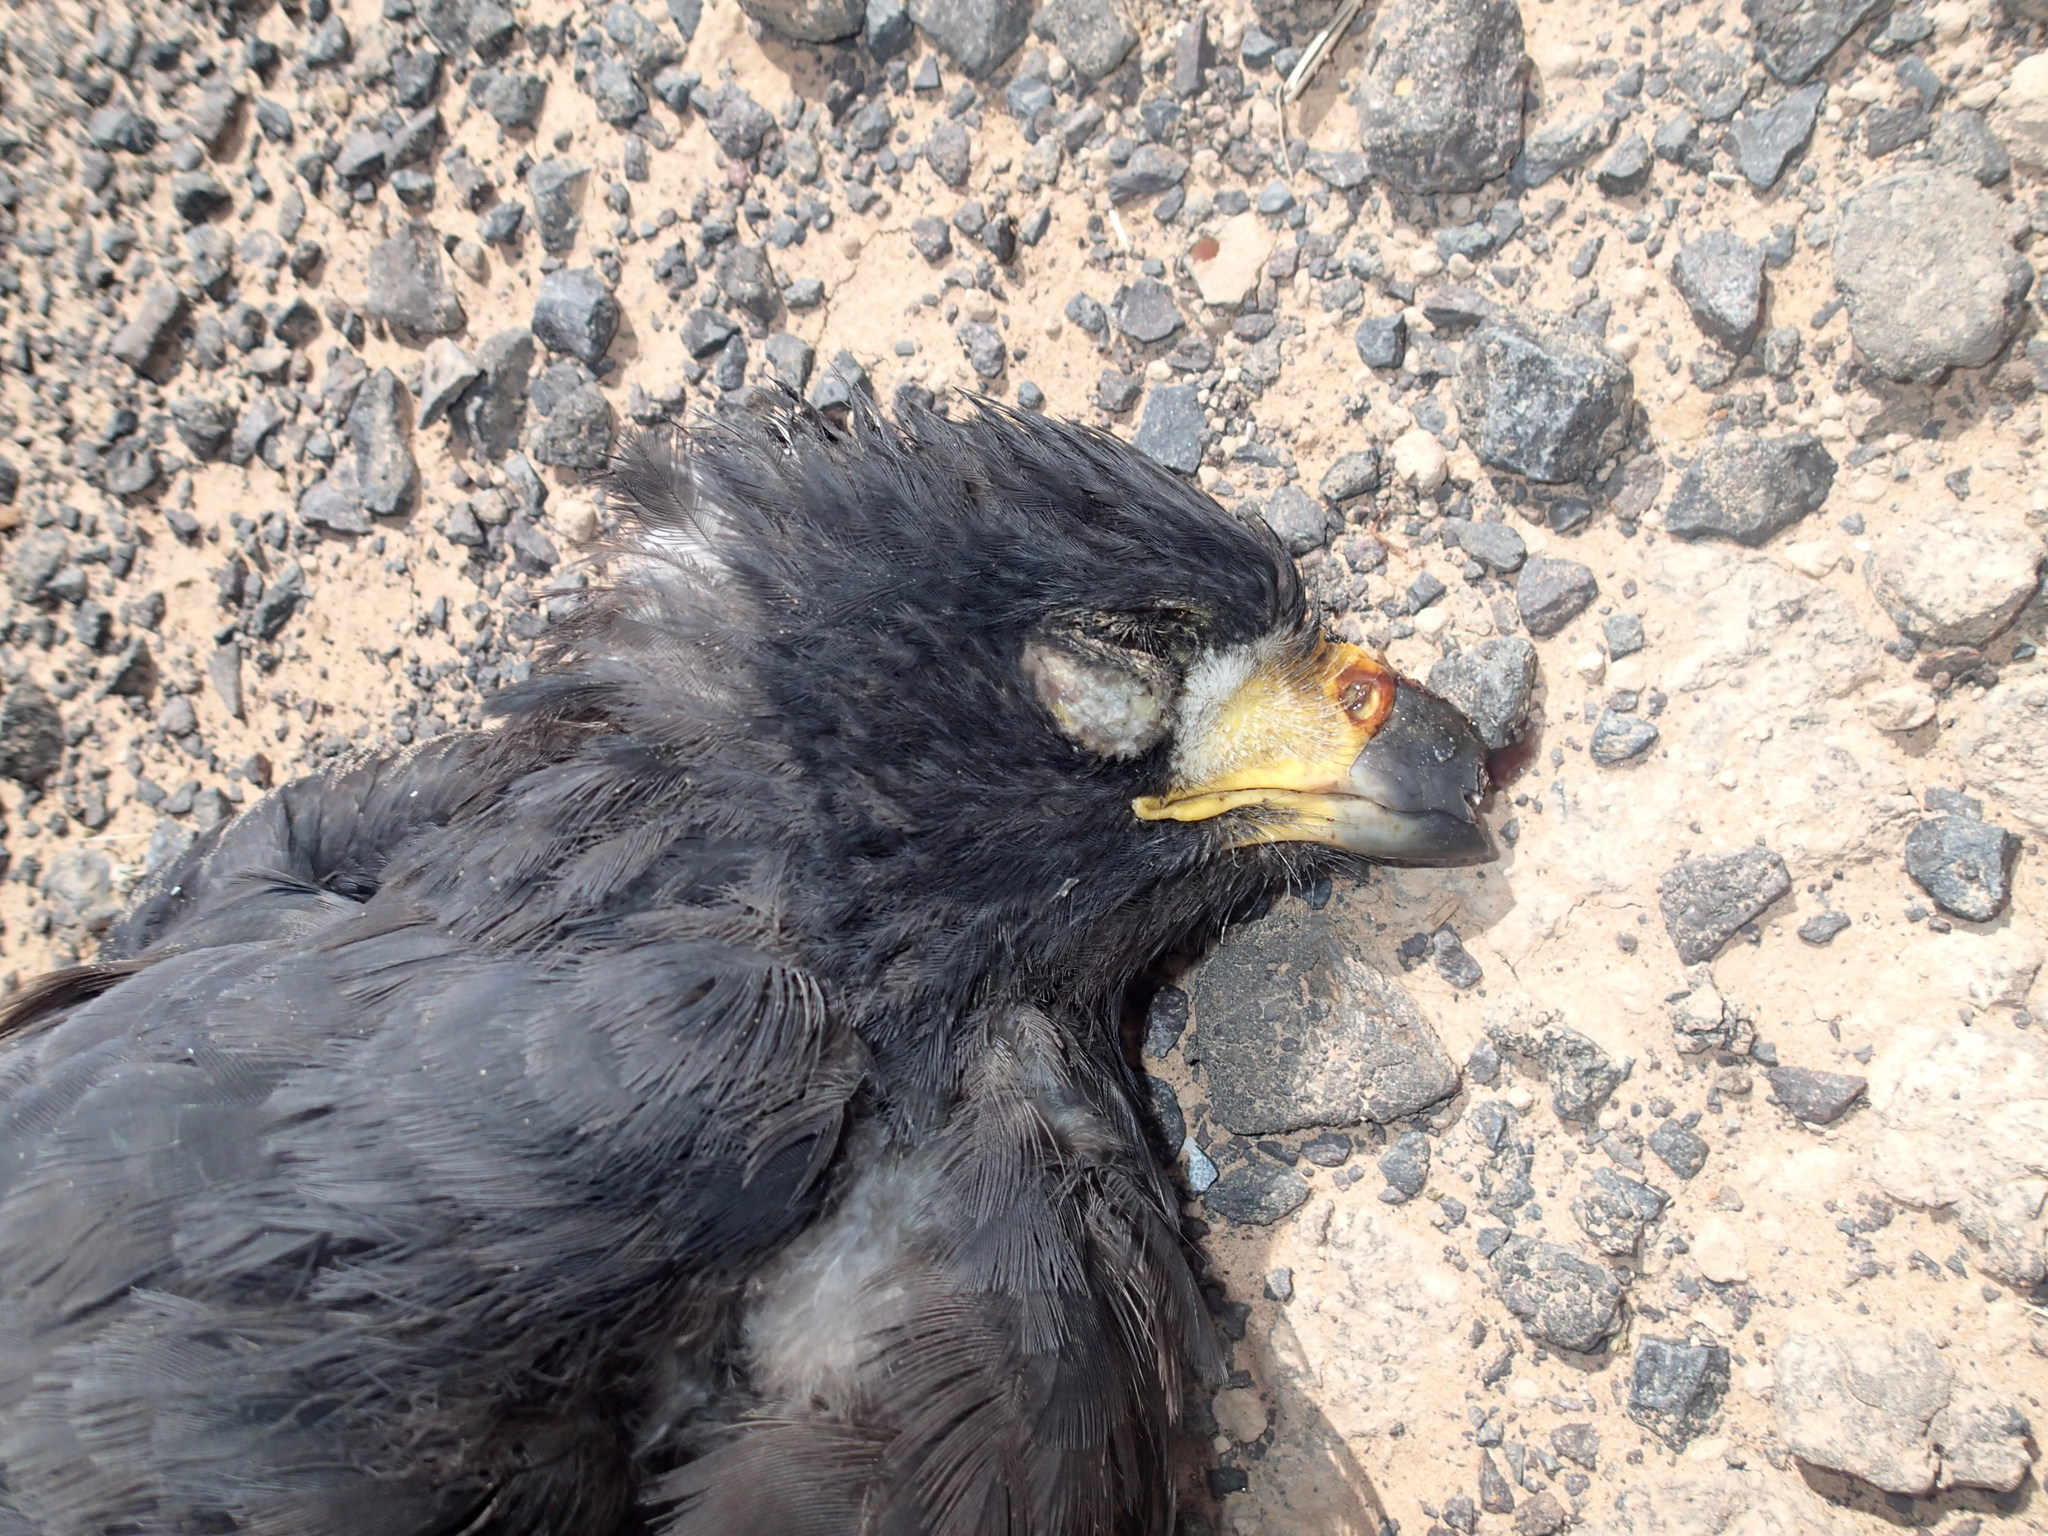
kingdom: Animalia
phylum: Chordata
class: Aves
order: Accipitriformes
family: Accipitridae
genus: Buteogallus
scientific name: Buteogallus urubitinga
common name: Great black hawk
